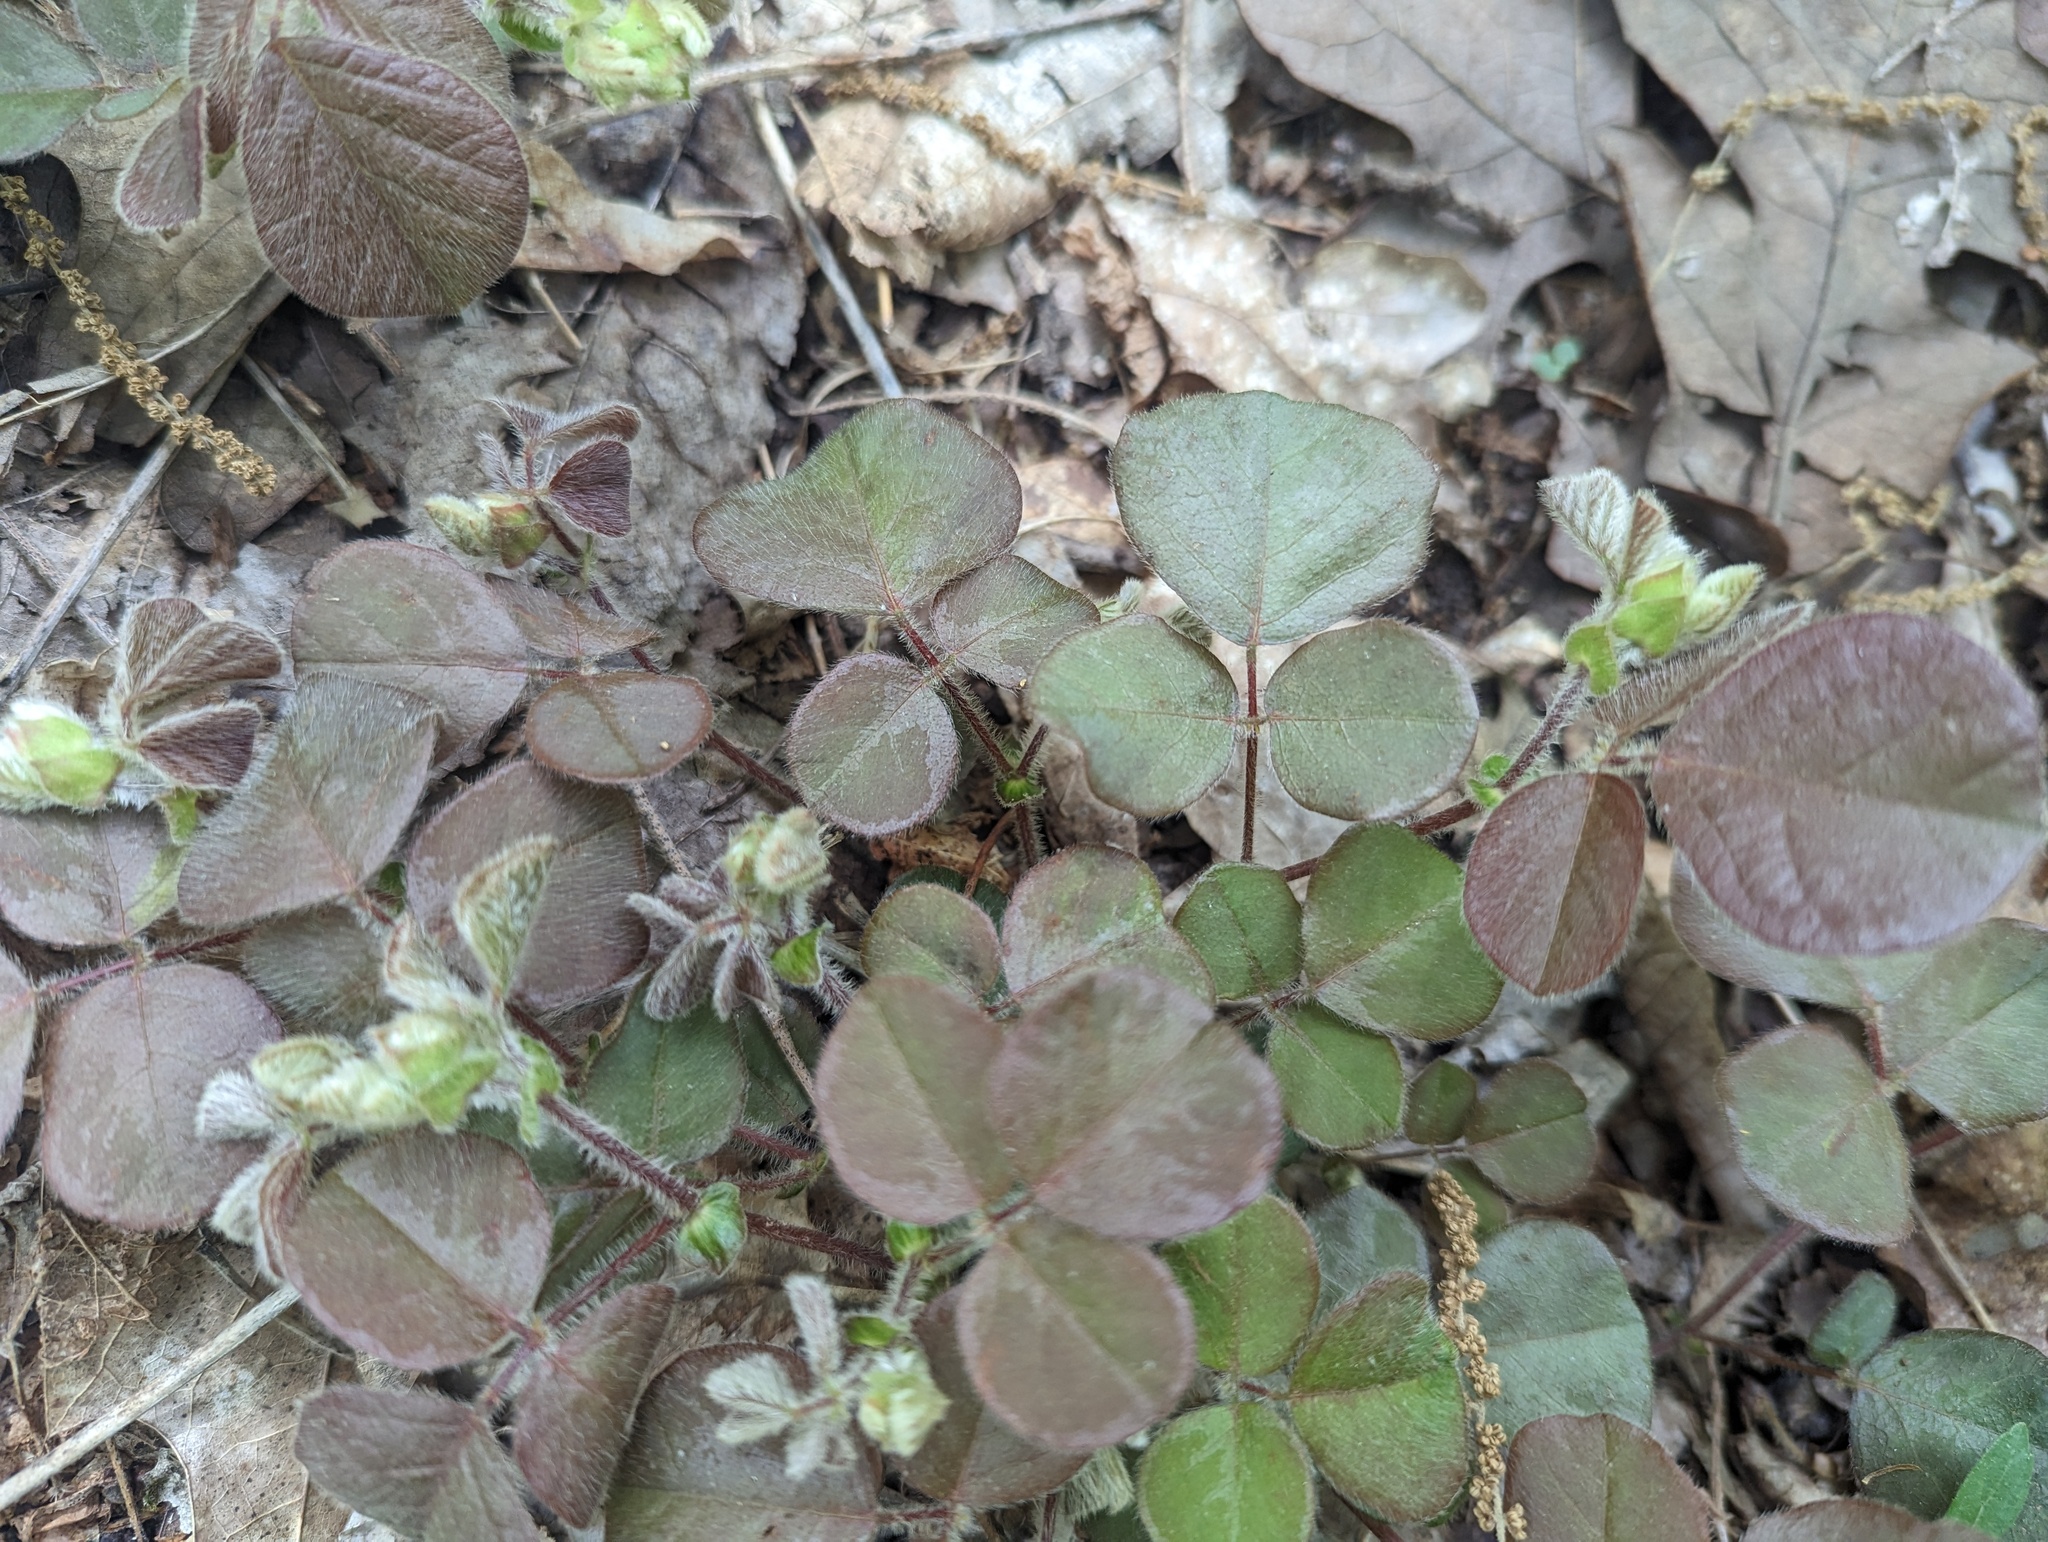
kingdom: Plantae
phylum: Tracheophyta
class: Magnoliopsida
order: Fabales
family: Fabaceae
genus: Desmodium
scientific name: Desmodium rotundifolium
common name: Dollarleaf
